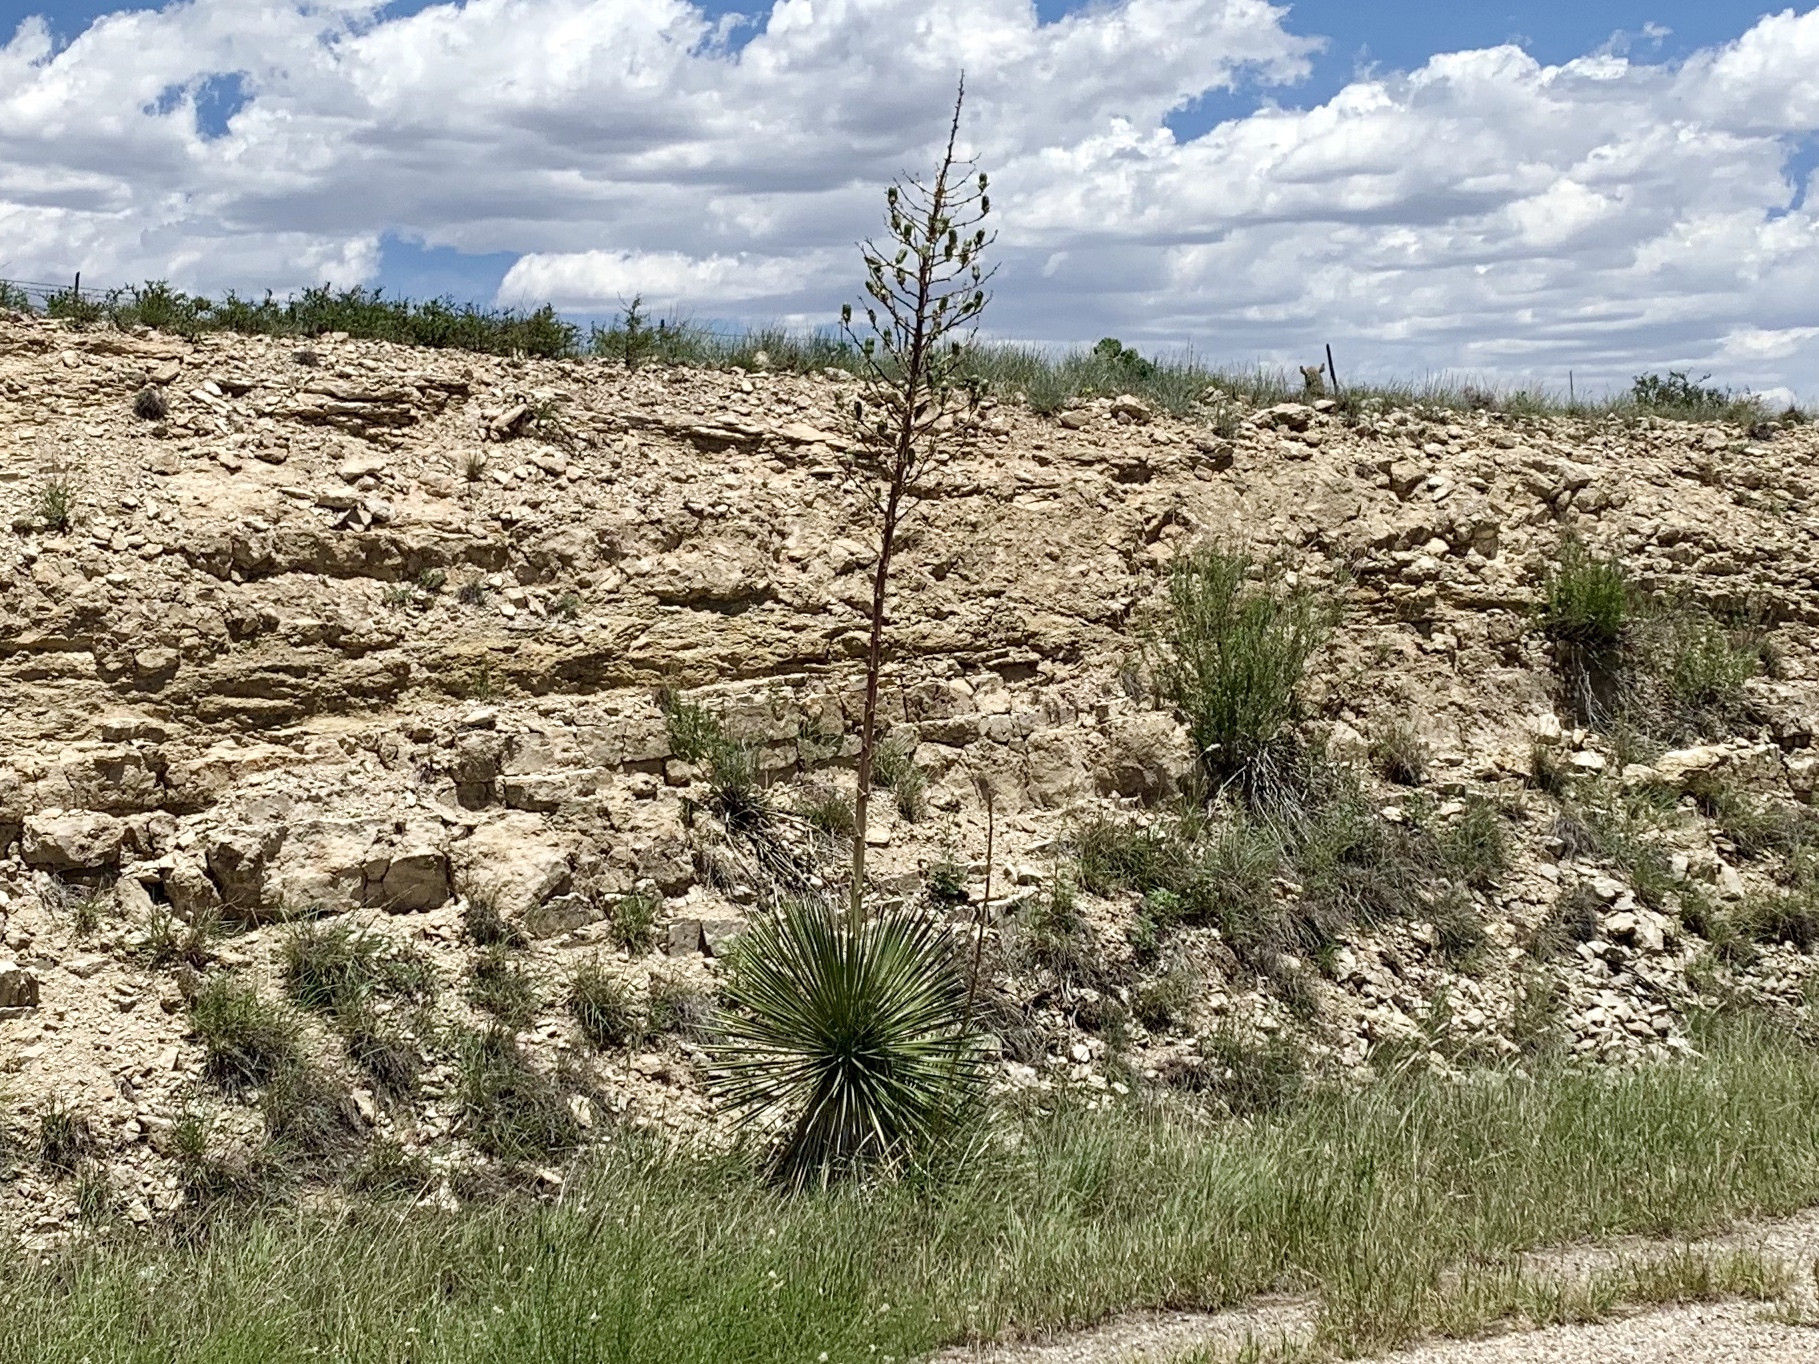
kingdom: Plantae
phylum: Tracheophyta
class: Liliopsida
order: Asparagales
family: Asparagaceae
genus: Yucca
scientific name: Yucca elata
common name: Palmella
